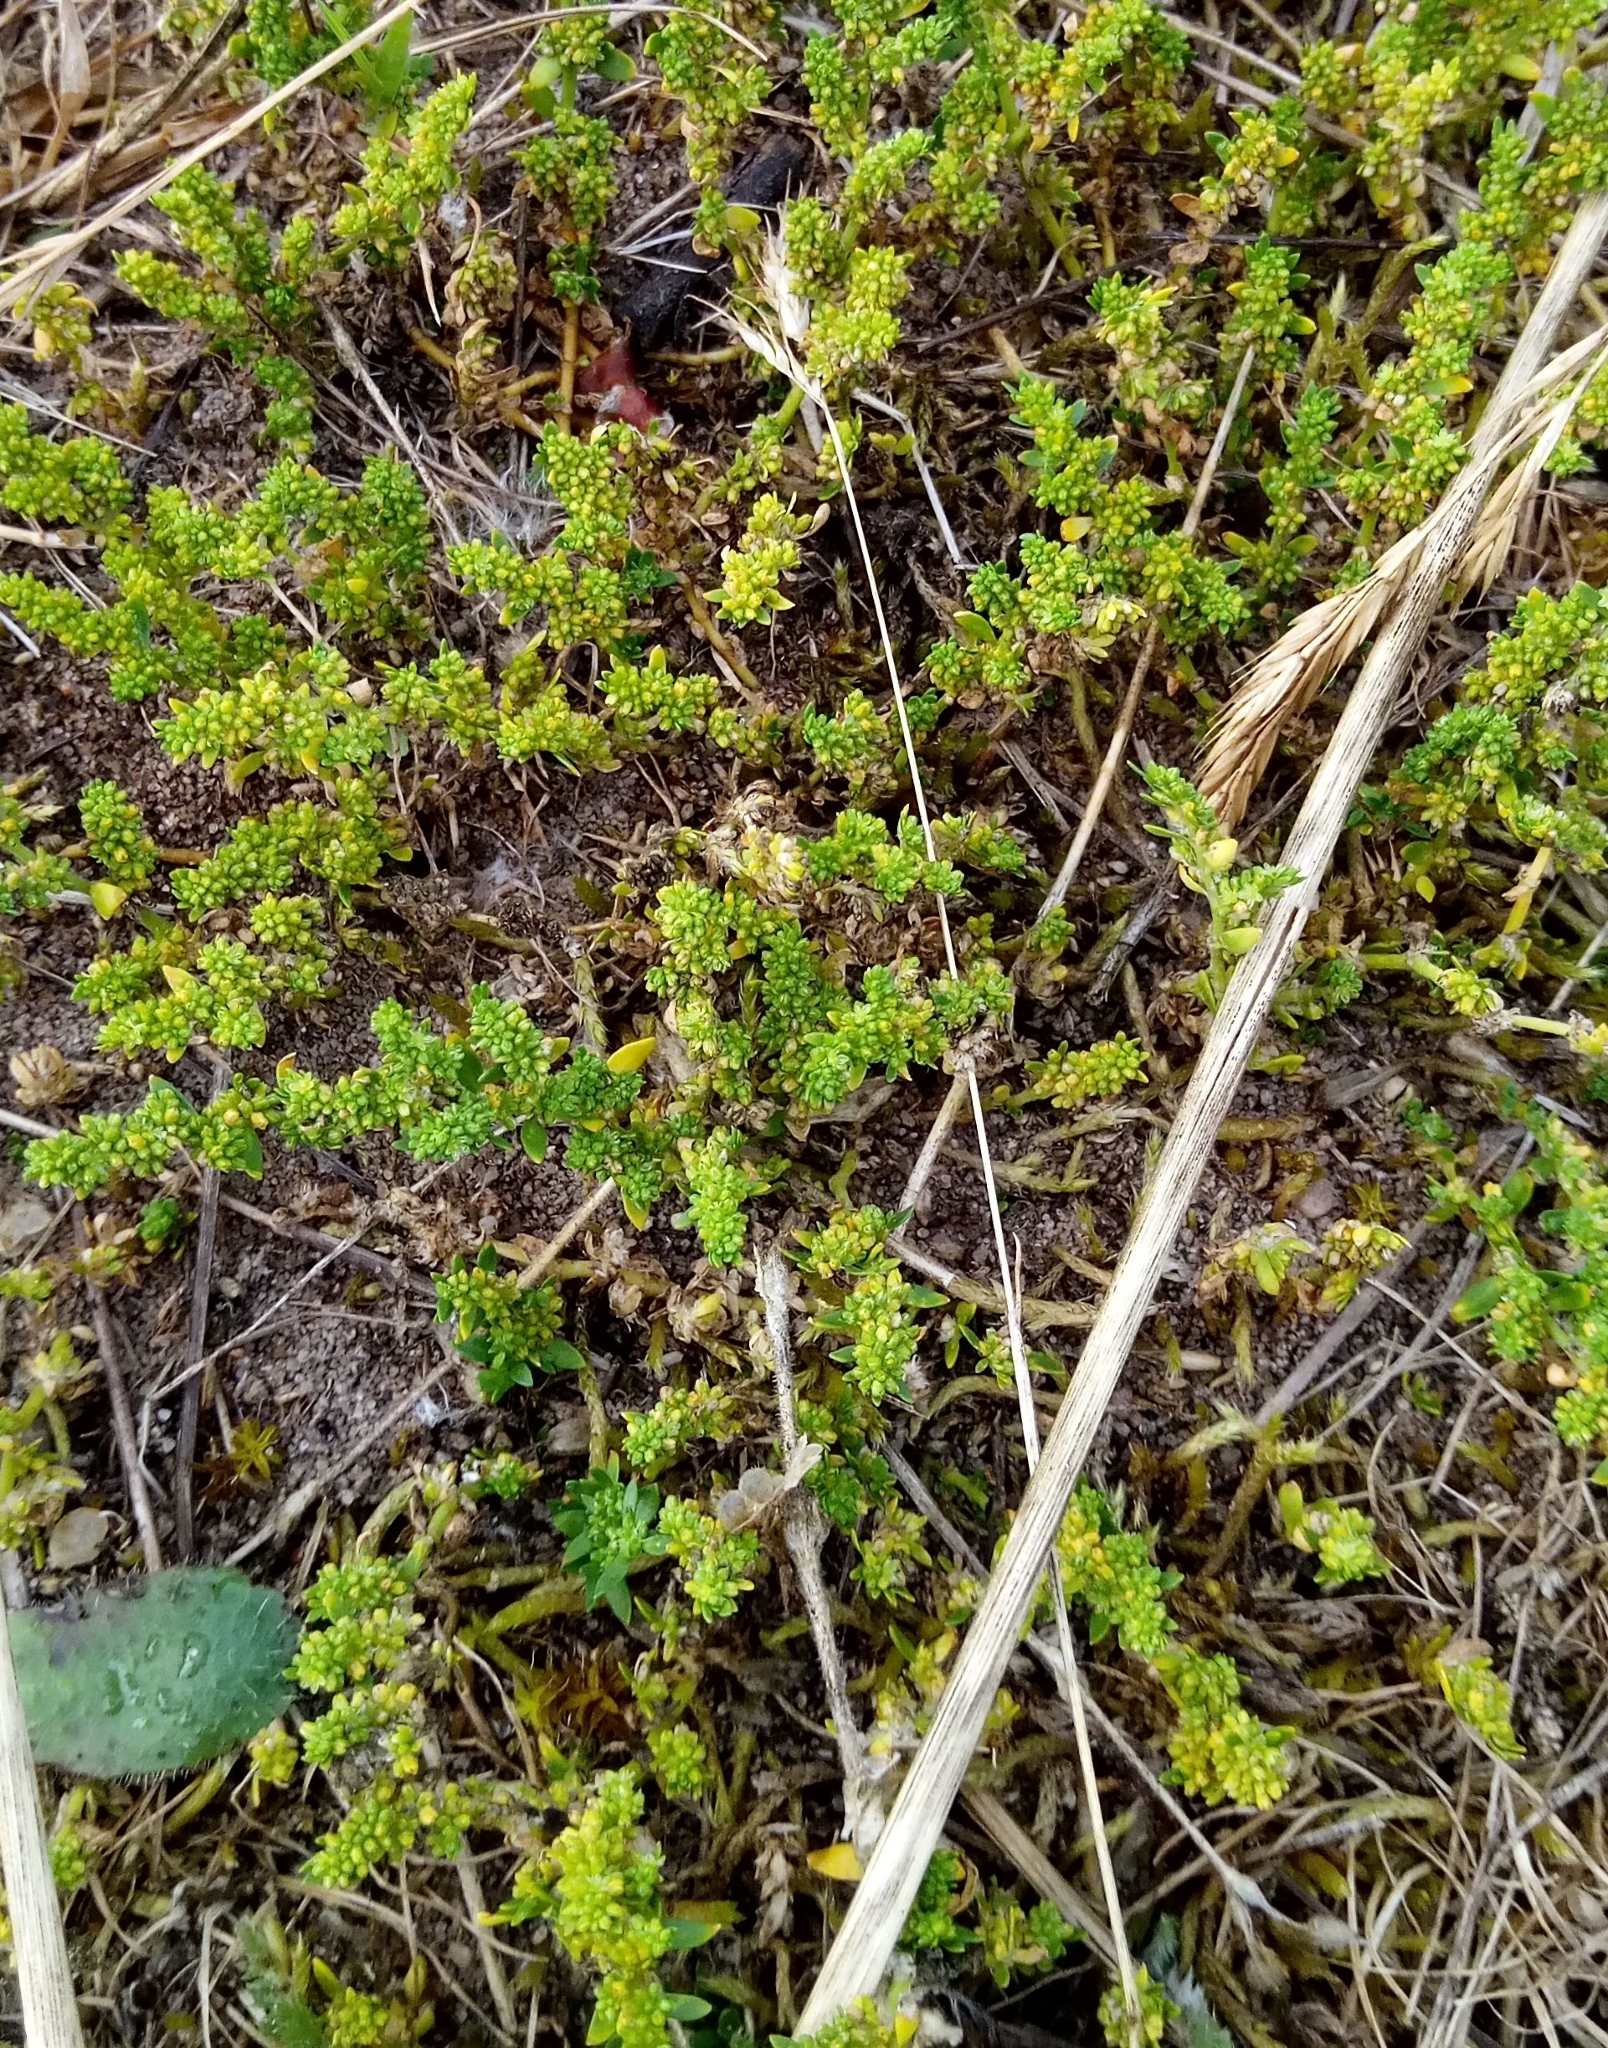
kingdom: Plantae
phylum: Tracheophyta
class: Magnoliopsida
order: Caryophyllales
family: Caryophyllaceae
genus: Herniaria
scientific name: Herniaria glabra
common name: Smooth rupturewort
